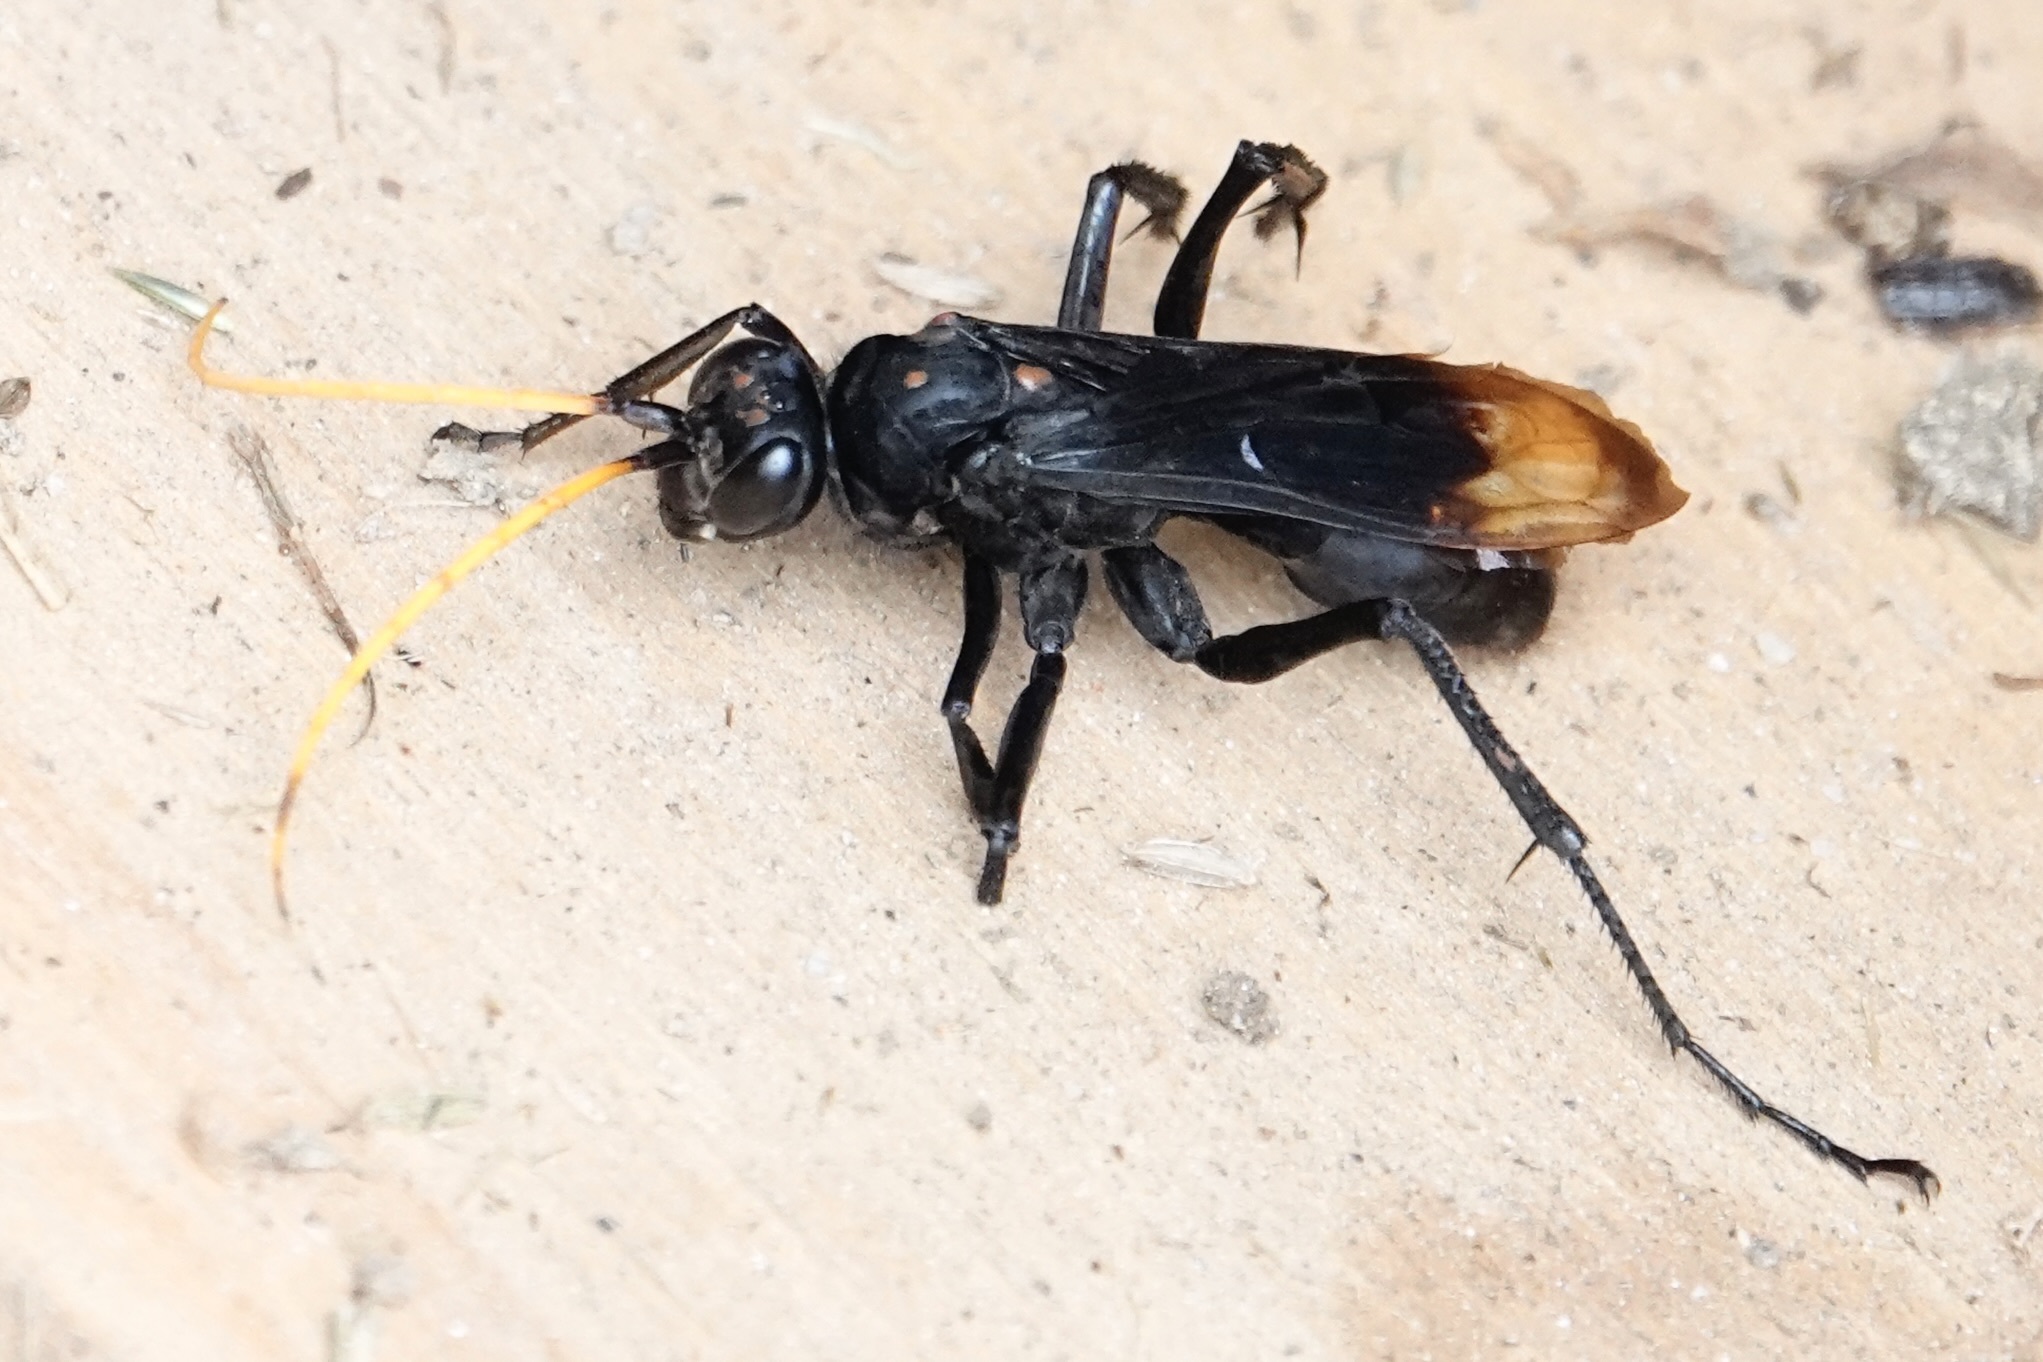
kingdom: Animalia
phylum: Arthropoda
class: Insecta
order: Hymenoptera
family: Pompilidae
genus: Entypus
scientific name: Entypus unifasciatus
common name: Eastern tawny-horned spider wasp
